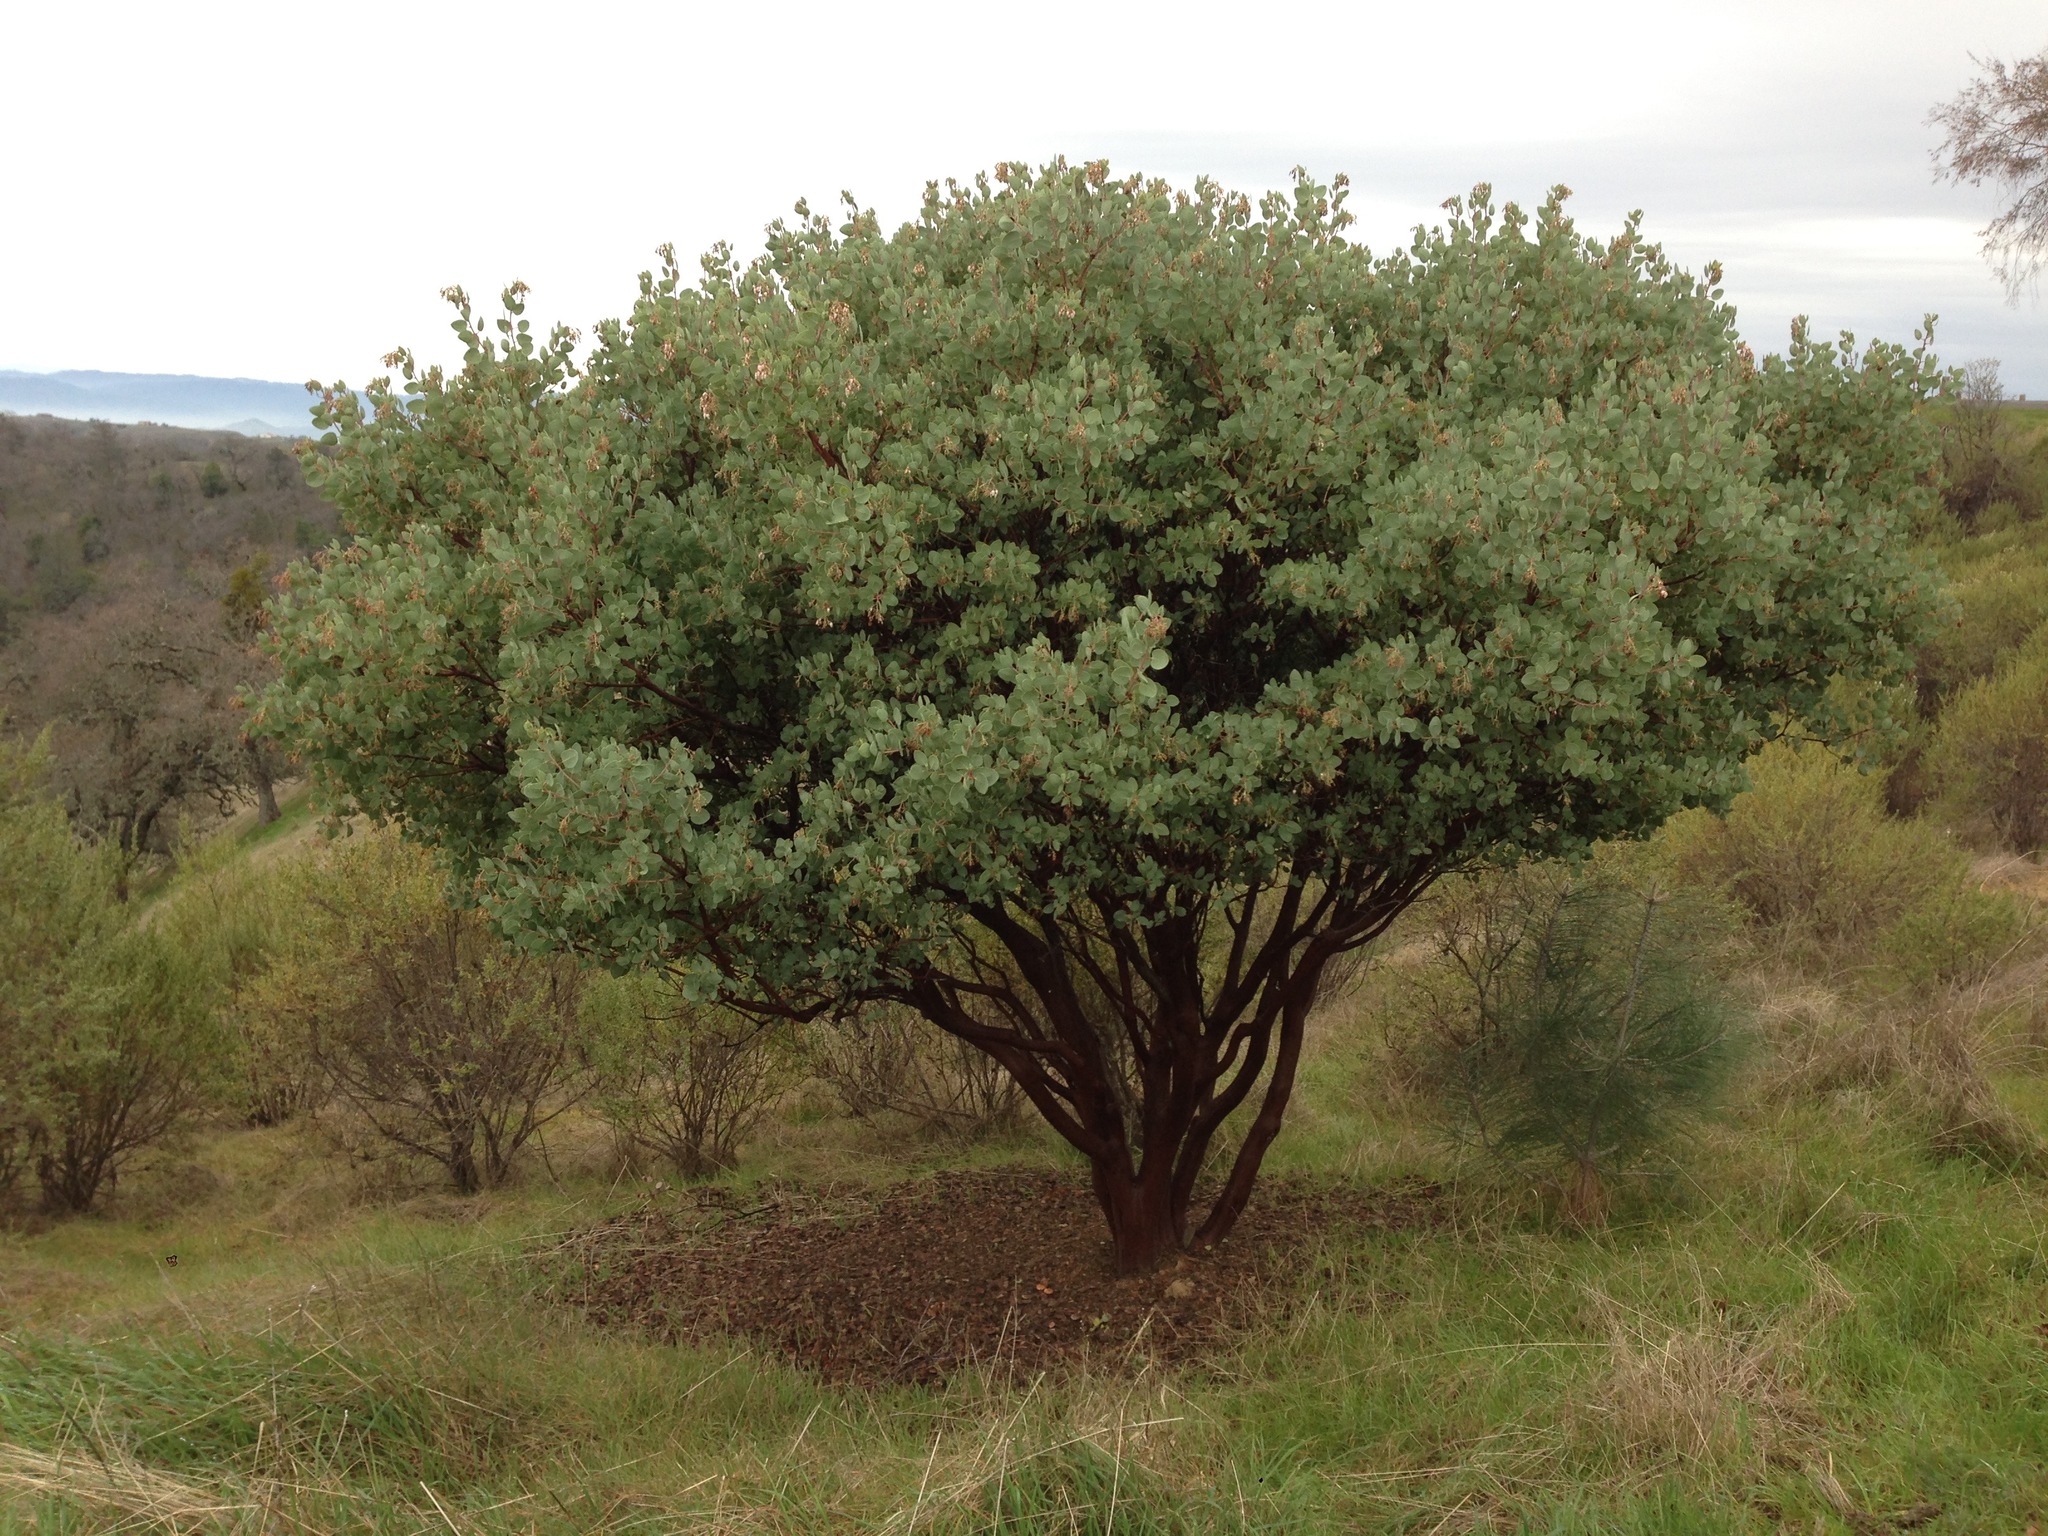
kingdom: Plantae
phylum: Tracheophyta
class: Magnoliopsida
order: Ericales
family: Ericaceae
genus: Arctostaphylos
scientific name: Arctostaphylos glauca
